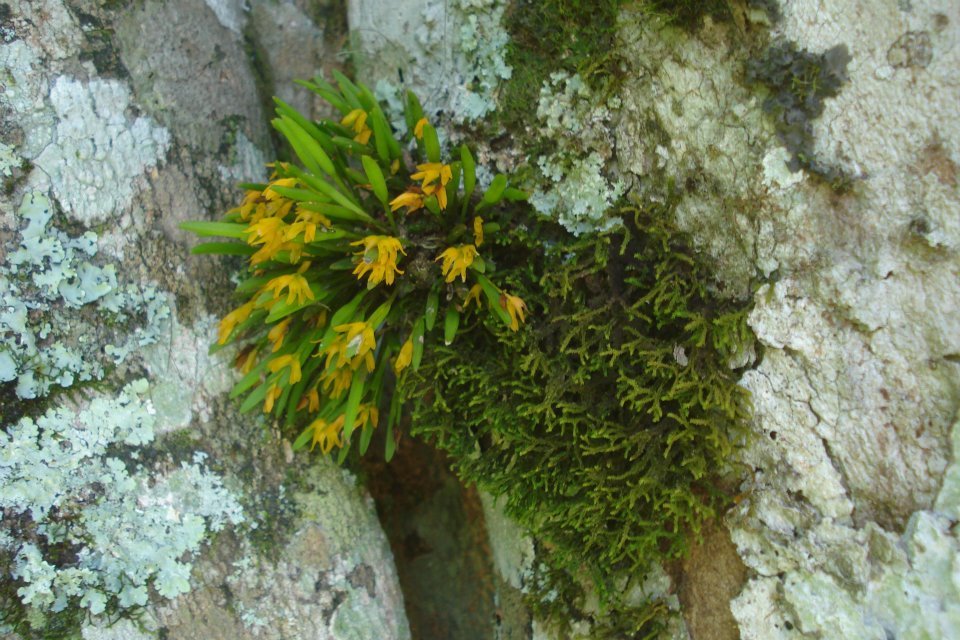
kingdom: Plantae
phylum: Tracheophyta
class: Liliopsida
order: Asparagales
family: Orchidaceae
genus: Acianthera
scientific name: Acianthera sonderiana
